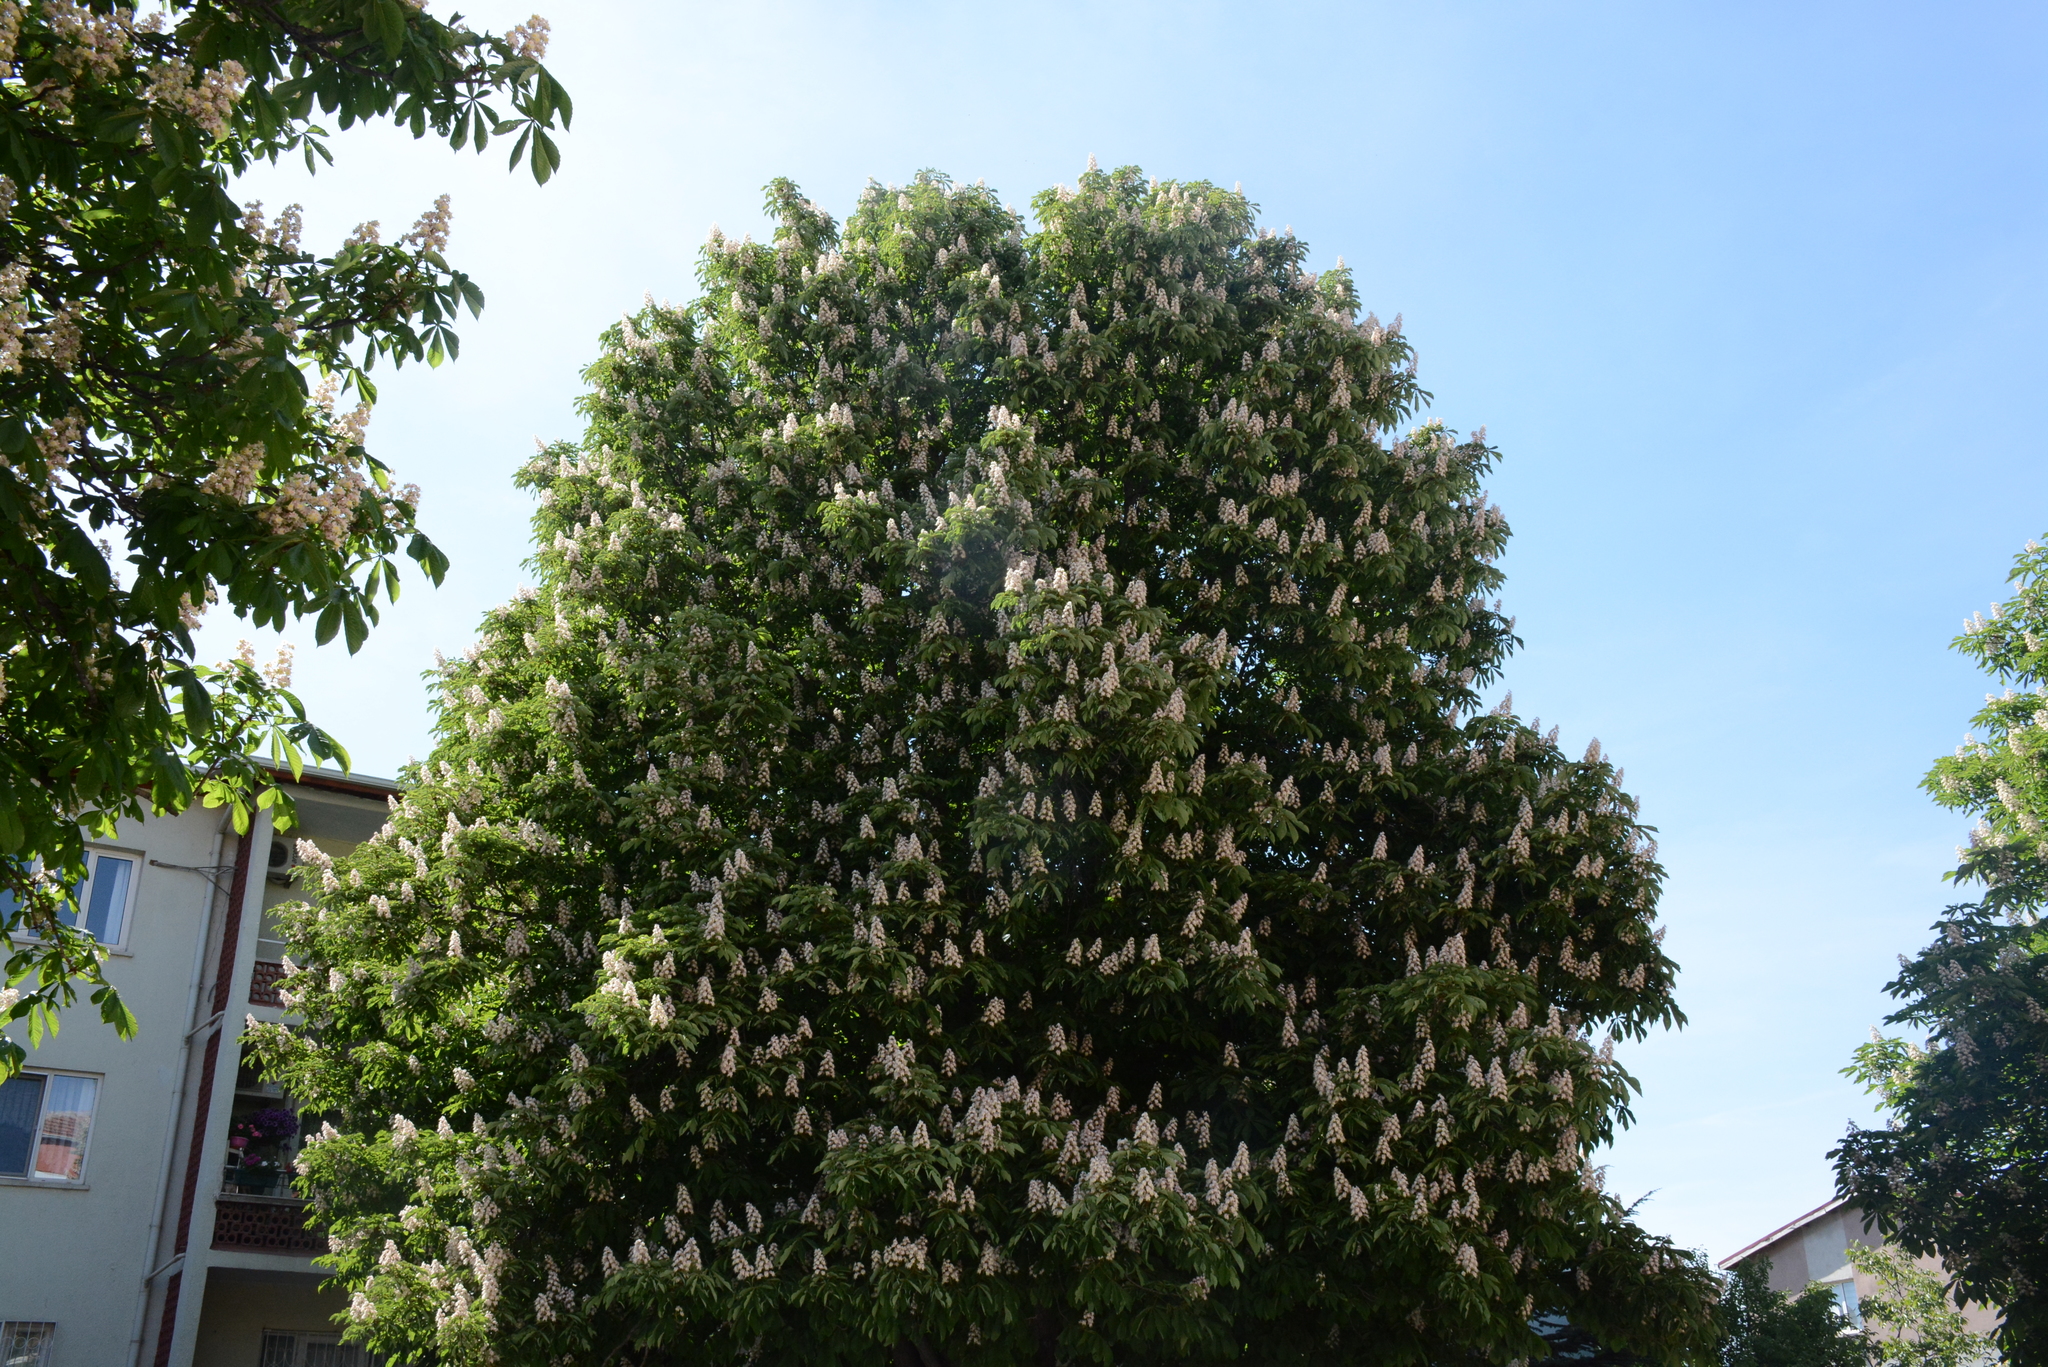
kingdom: Plantae
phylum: Tracheophyta
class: Magnoliopsida
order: Sapindales
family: Sapindaceae
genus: Aesculus
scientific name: Aesculus hippocastanum
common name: Horse-chestnut
